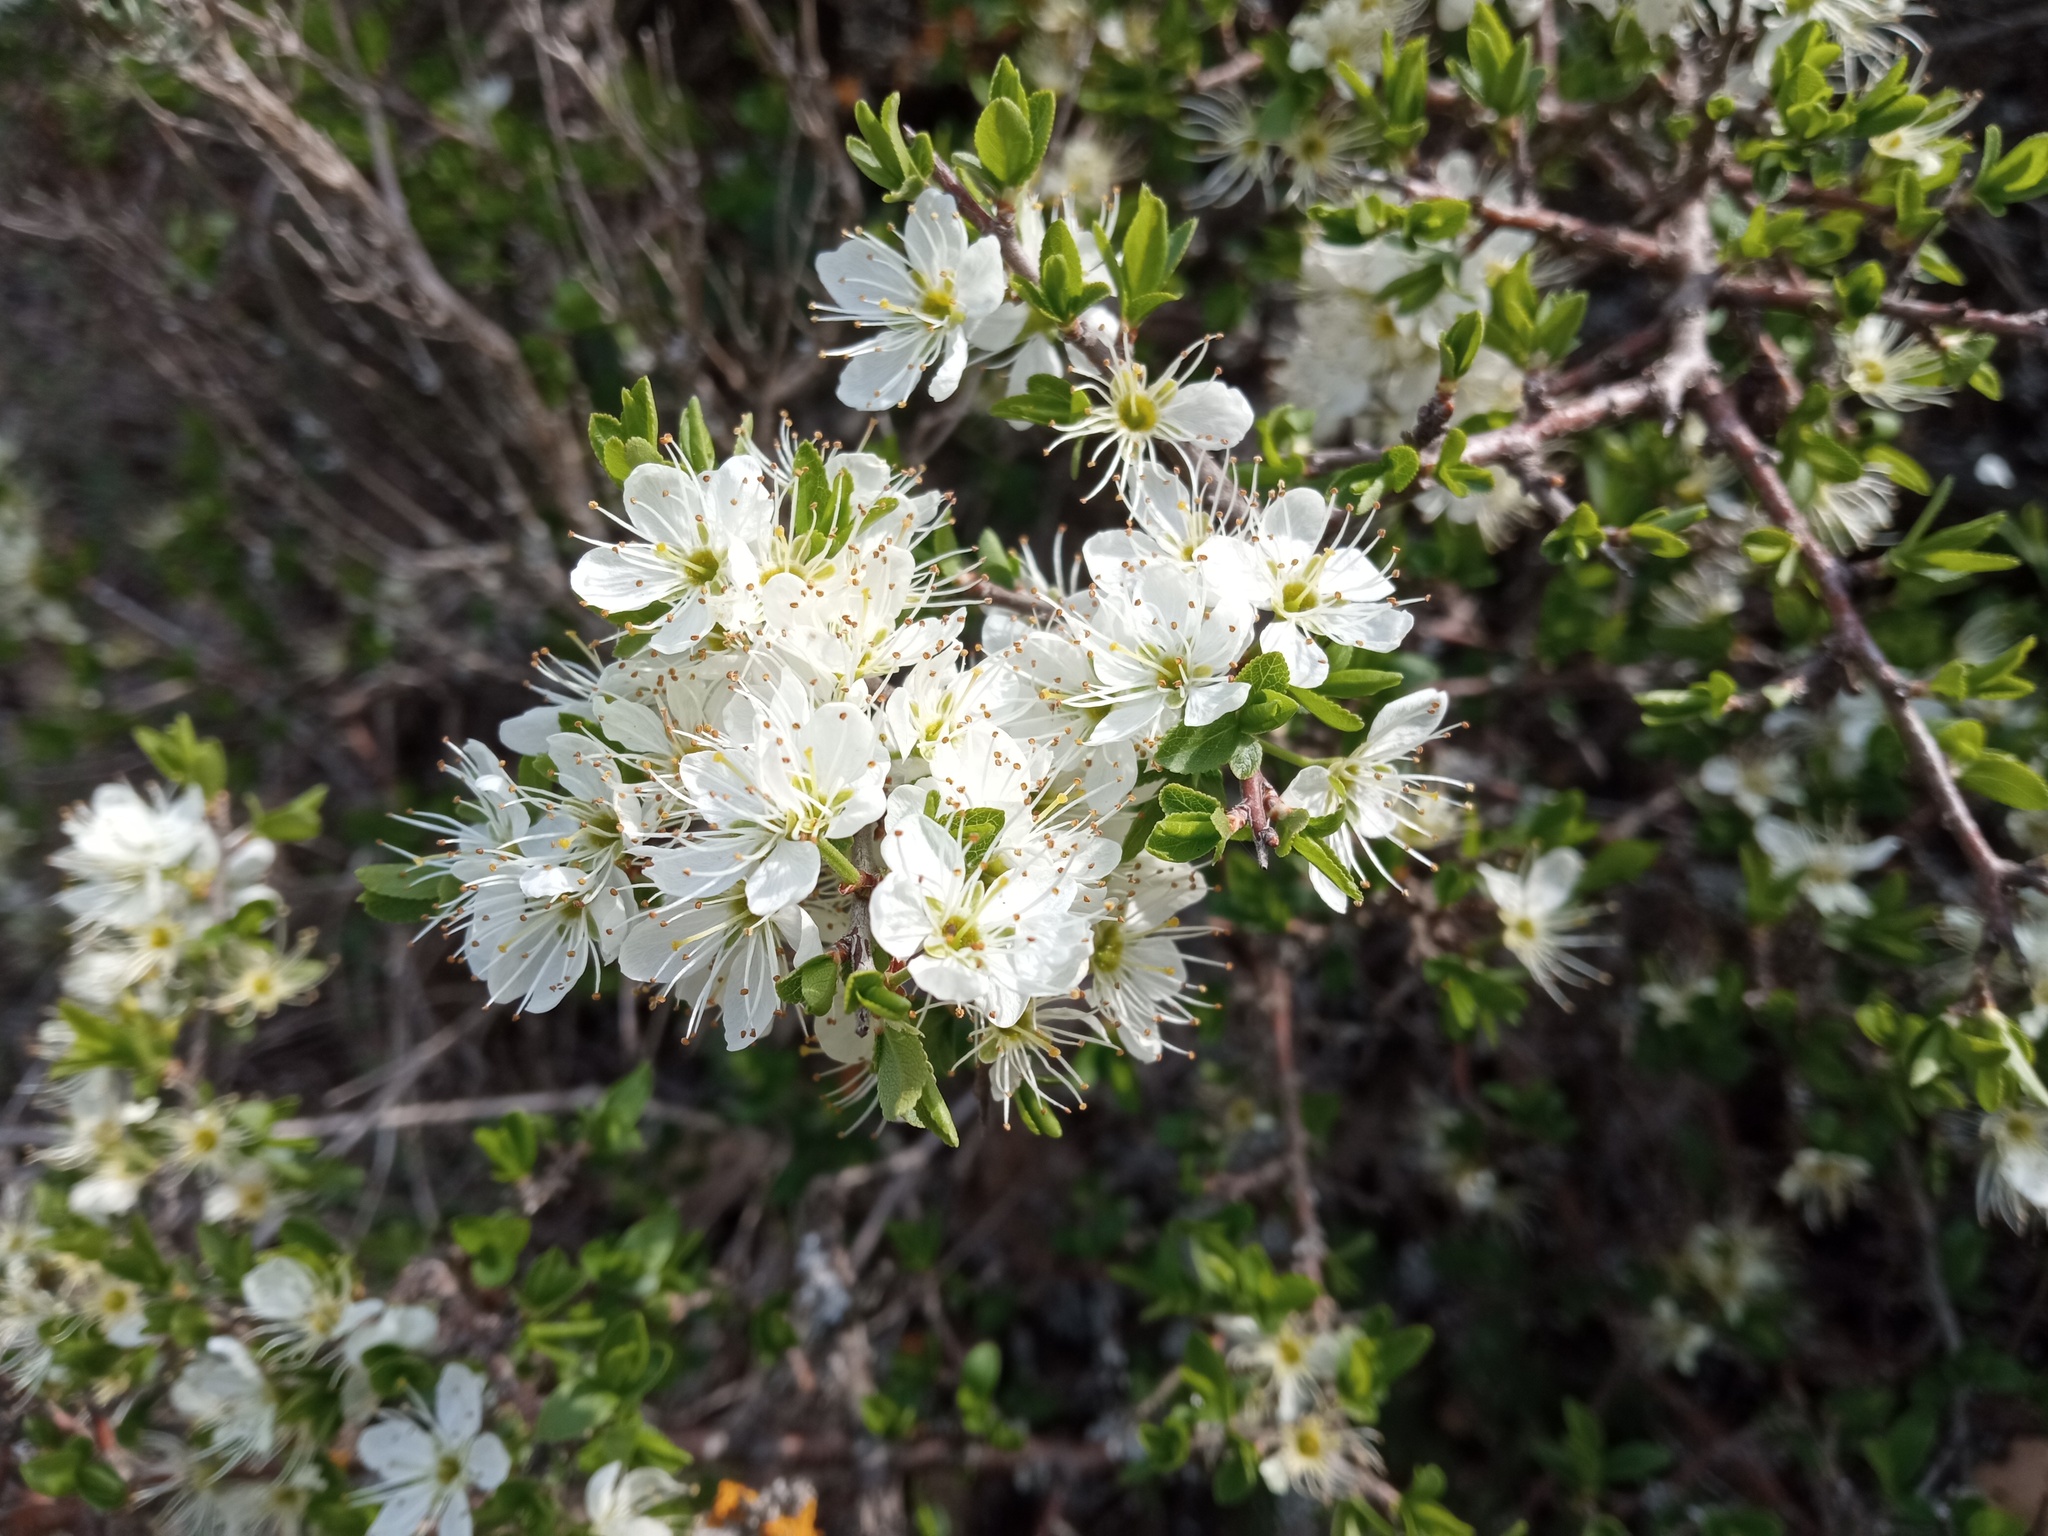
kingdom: Plantae
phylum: Tracheophyta
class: Magnoliopsida
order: Rosales
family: Rosaceae
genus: Prunus
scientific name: Prunus spinosa
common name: Blackthorn
